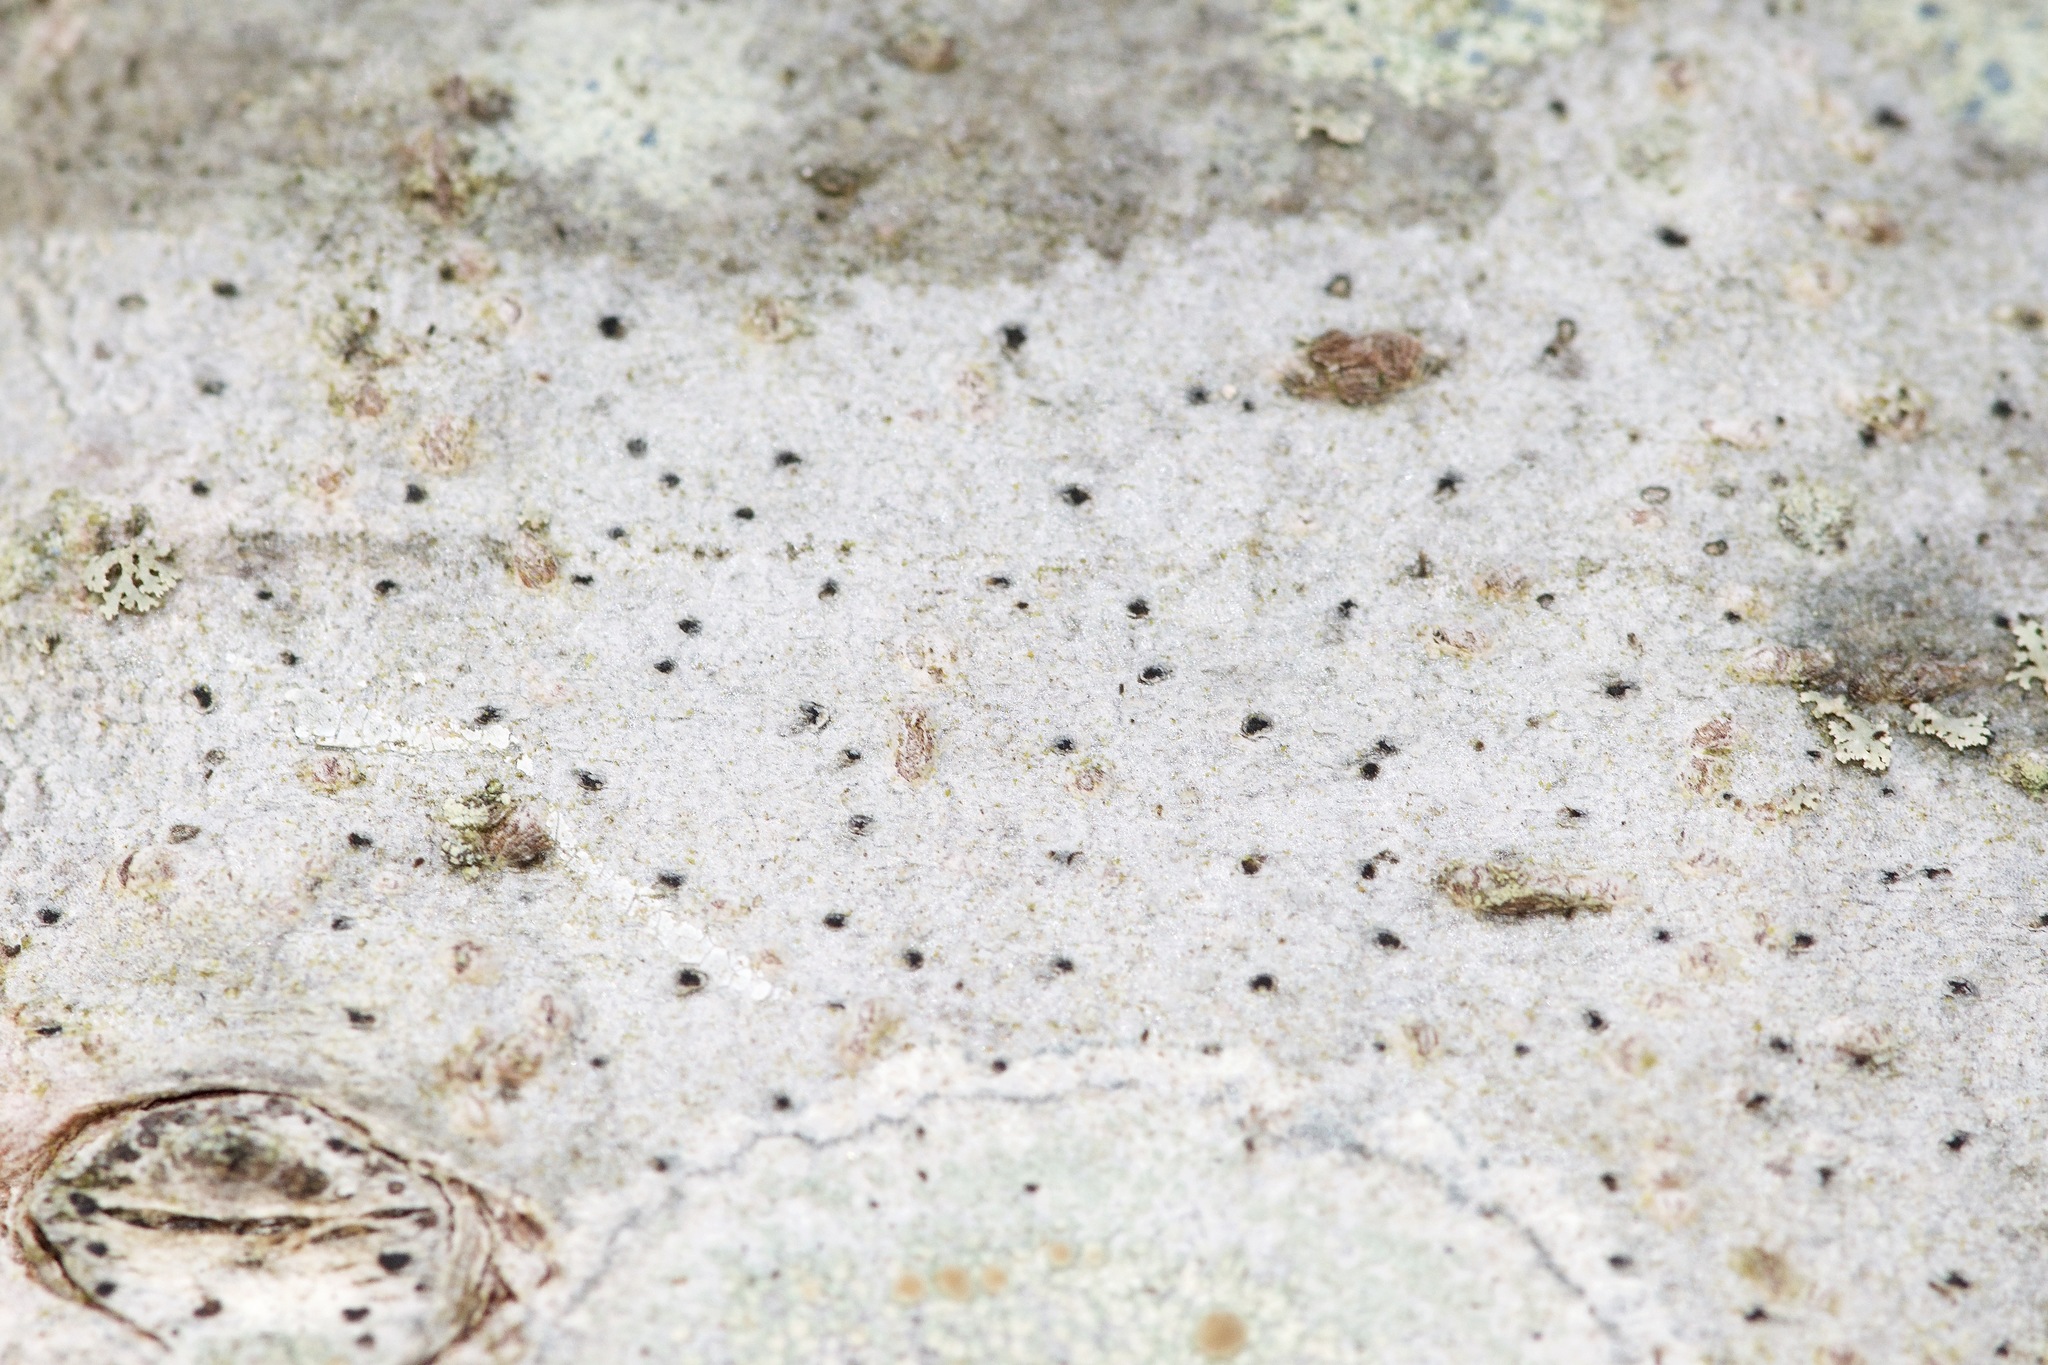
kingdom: Fungi
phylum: Ascomycota
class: Arthoniomycetes
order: Arthoniales
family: Arthoniaceae
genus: Arthonia
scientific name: Arthonia hypobela
